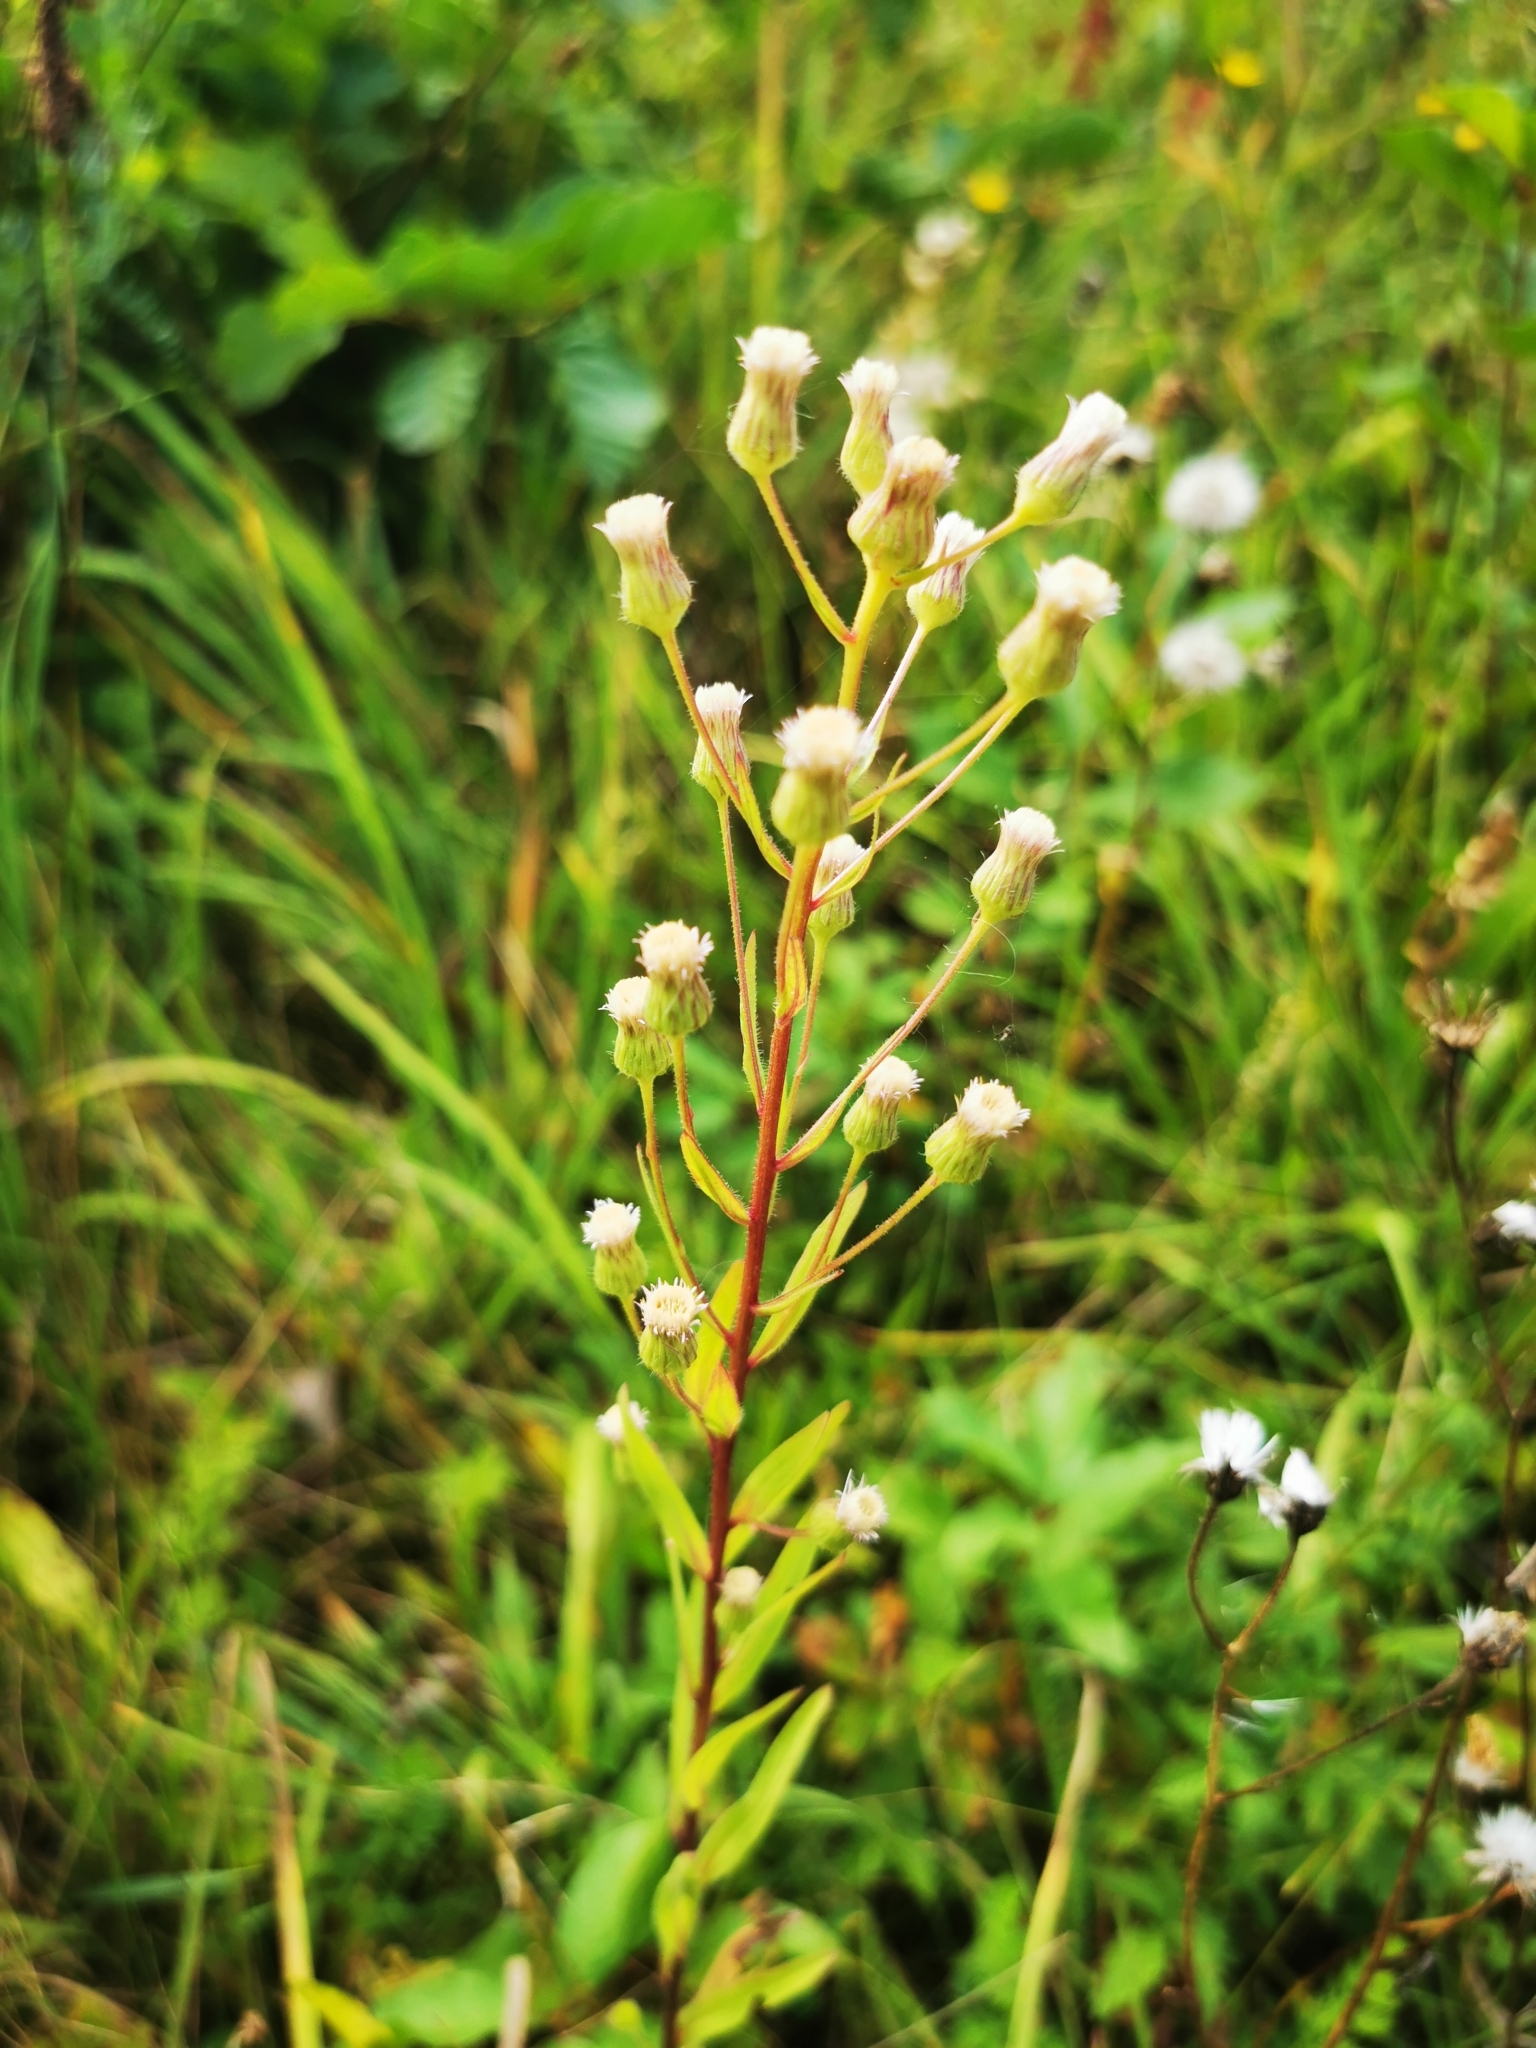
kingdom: Plantae
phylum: Tracheophyta
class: Magnoliopsida
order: Asterales
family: Asteraceae
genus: Erigeron
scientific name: Erigeron acris
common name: Blue fleabane
